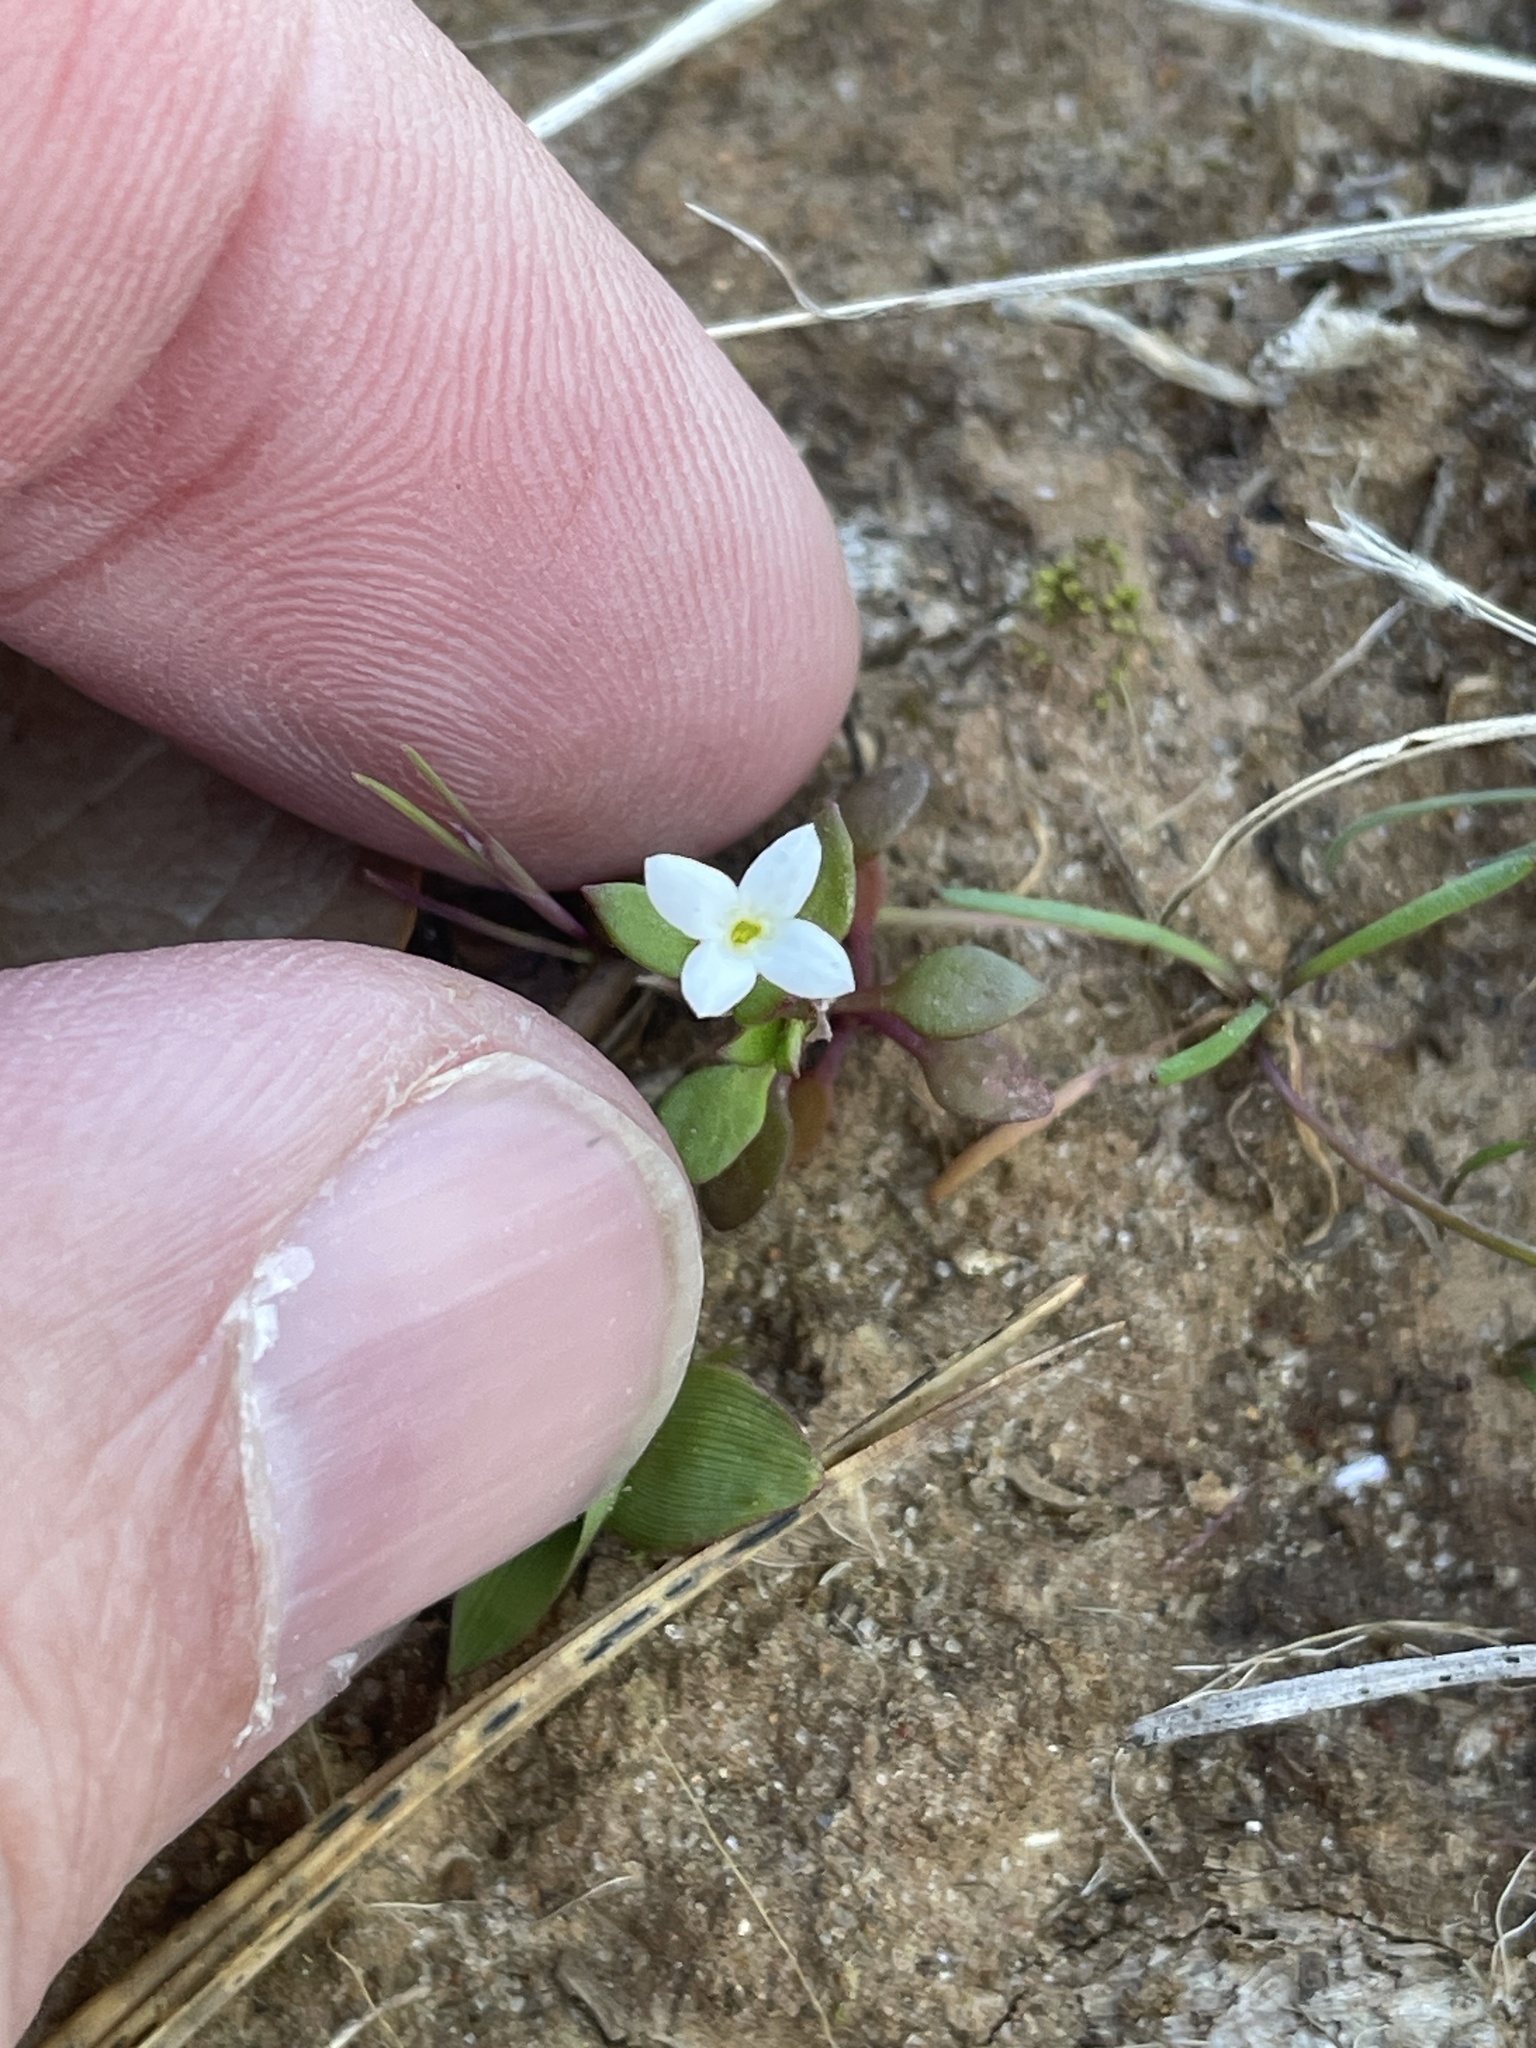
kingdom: Plantae
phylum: Tracheophyta
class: Magnoliopsida
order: Gentianales
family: Rubiaceae
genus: Houstonia
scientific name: Houstonia micrantha
